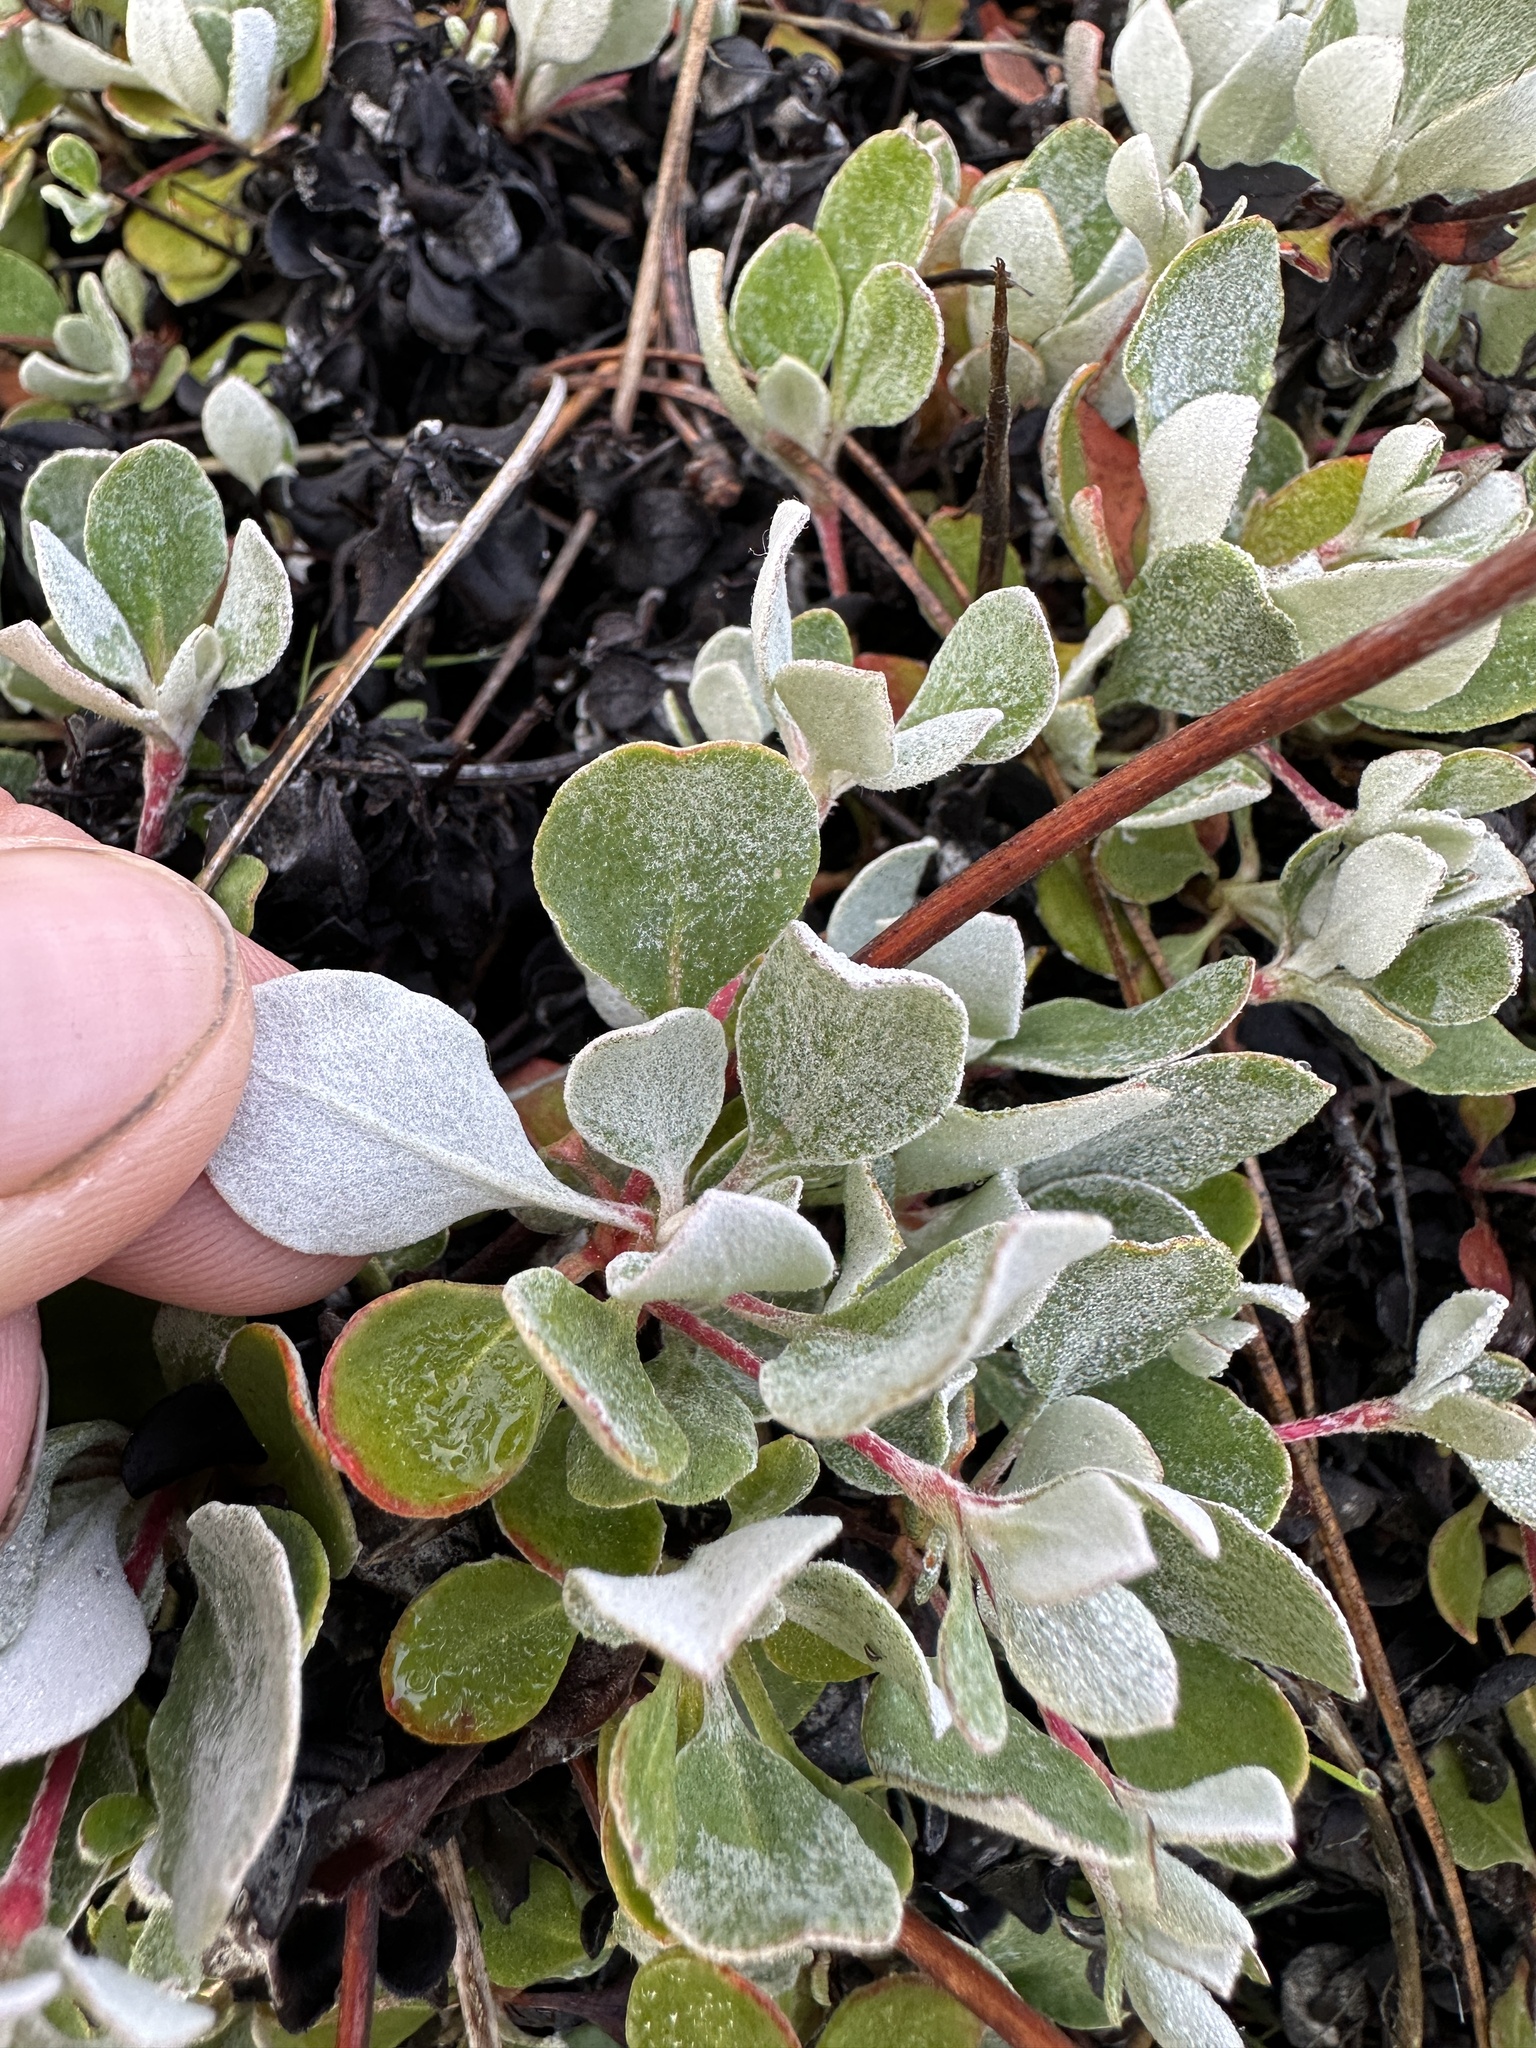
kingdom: Plantae
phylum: Tracheophyta
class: Magnoliopsida
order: Caryophyllales
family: Polygonaceae
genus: Eriogonum
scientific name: Eriogonum umbellatum
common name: Sulfur-buckwheat
